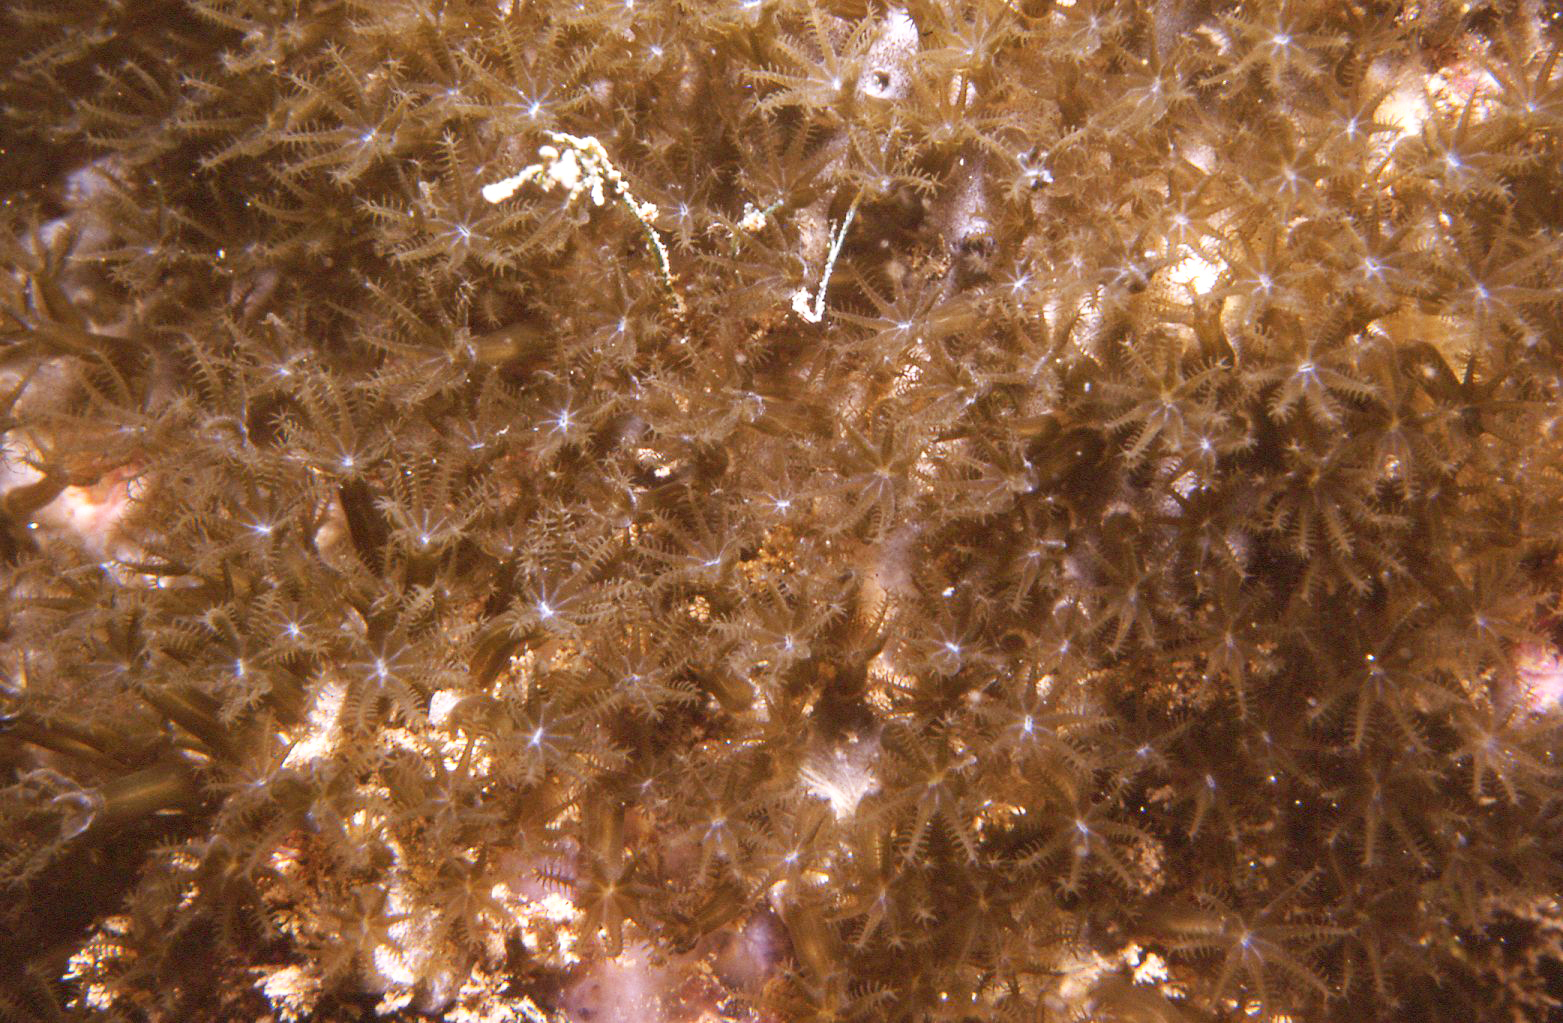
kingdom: Animalia
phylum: Cnidaria
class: Anthozoa
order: Scleralcyonacea
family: Erythropodiidae
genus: Erythropodium
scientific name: Erythropodium hicksoni
